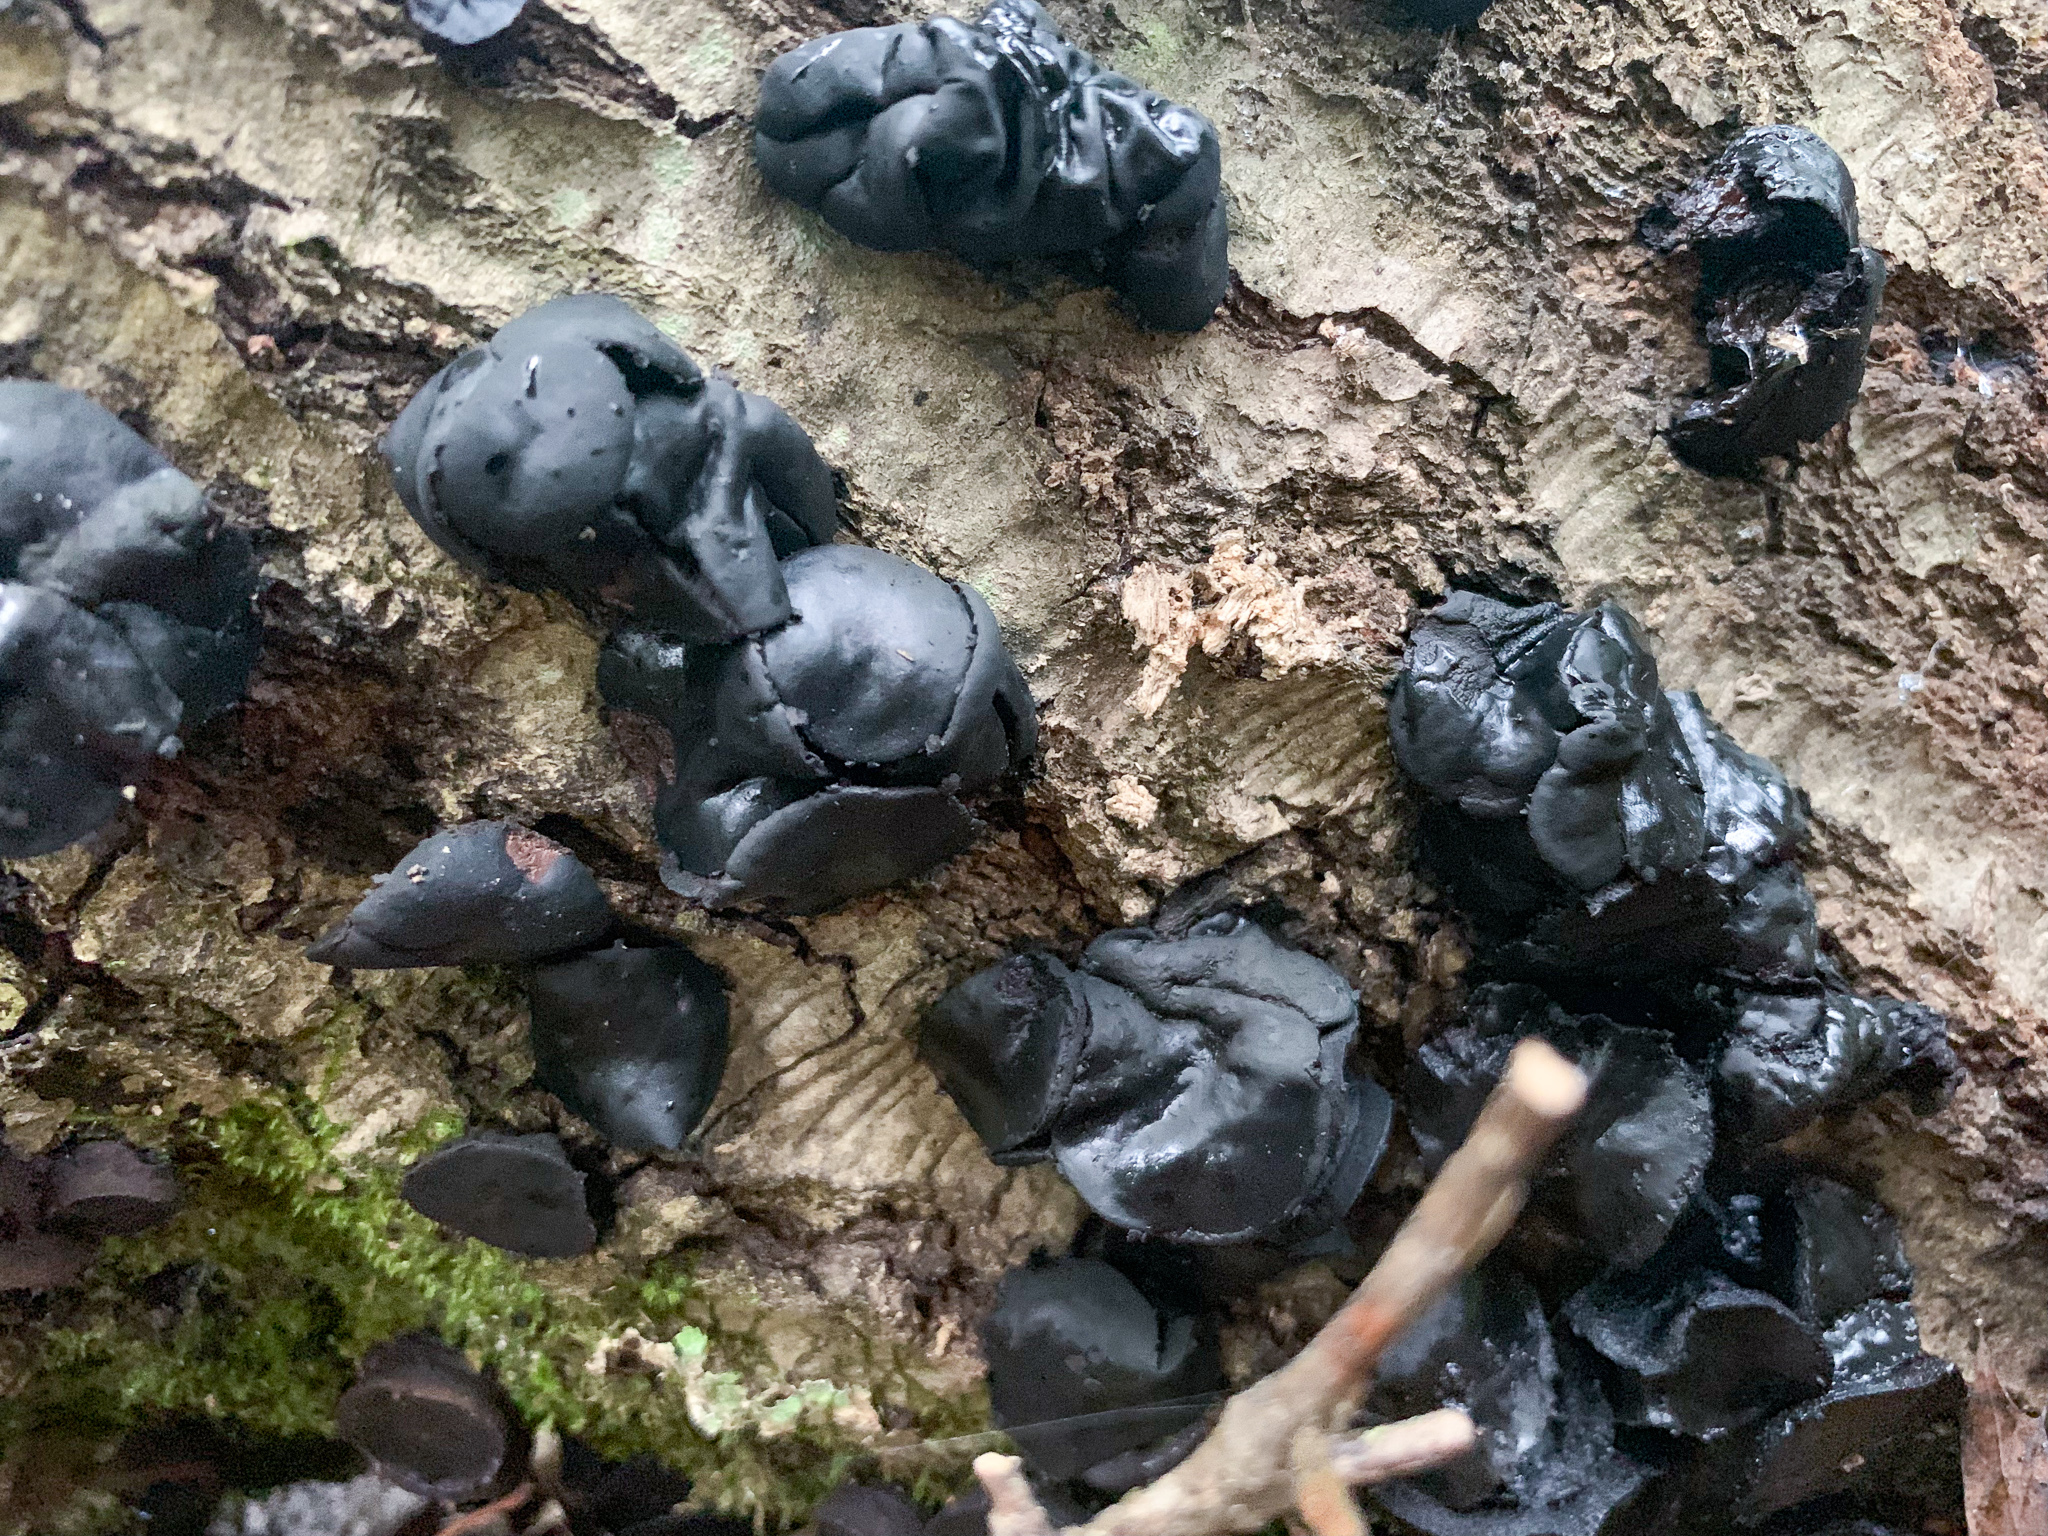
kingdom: Fungi
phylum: Ascomycota
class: Leotiomycetes
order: Phacidiales
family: Phacidiaceae
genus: Bulgaria
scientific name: Bulgaria inquinans
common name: Black bulgar
